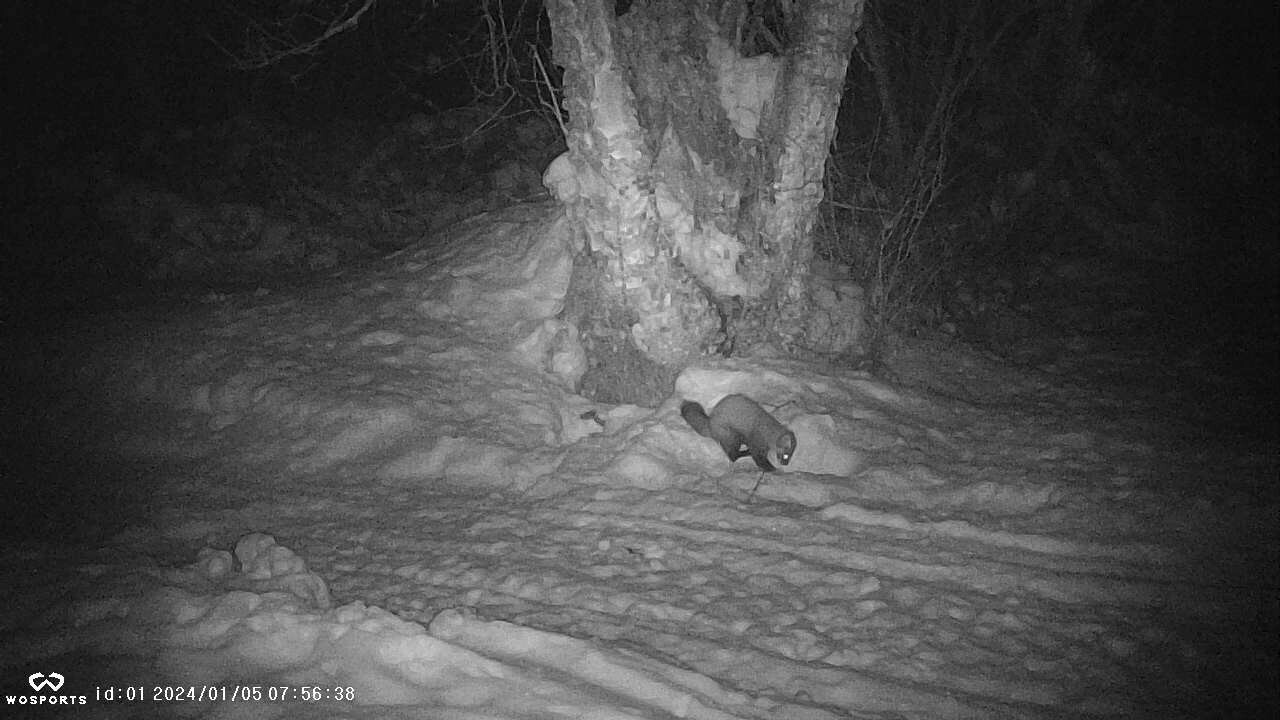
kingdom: Animalia
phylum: Chordata
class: Mammalia
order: Carnivora
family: Mustelidae
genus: Martes
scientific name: Martes americana
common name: American marten
